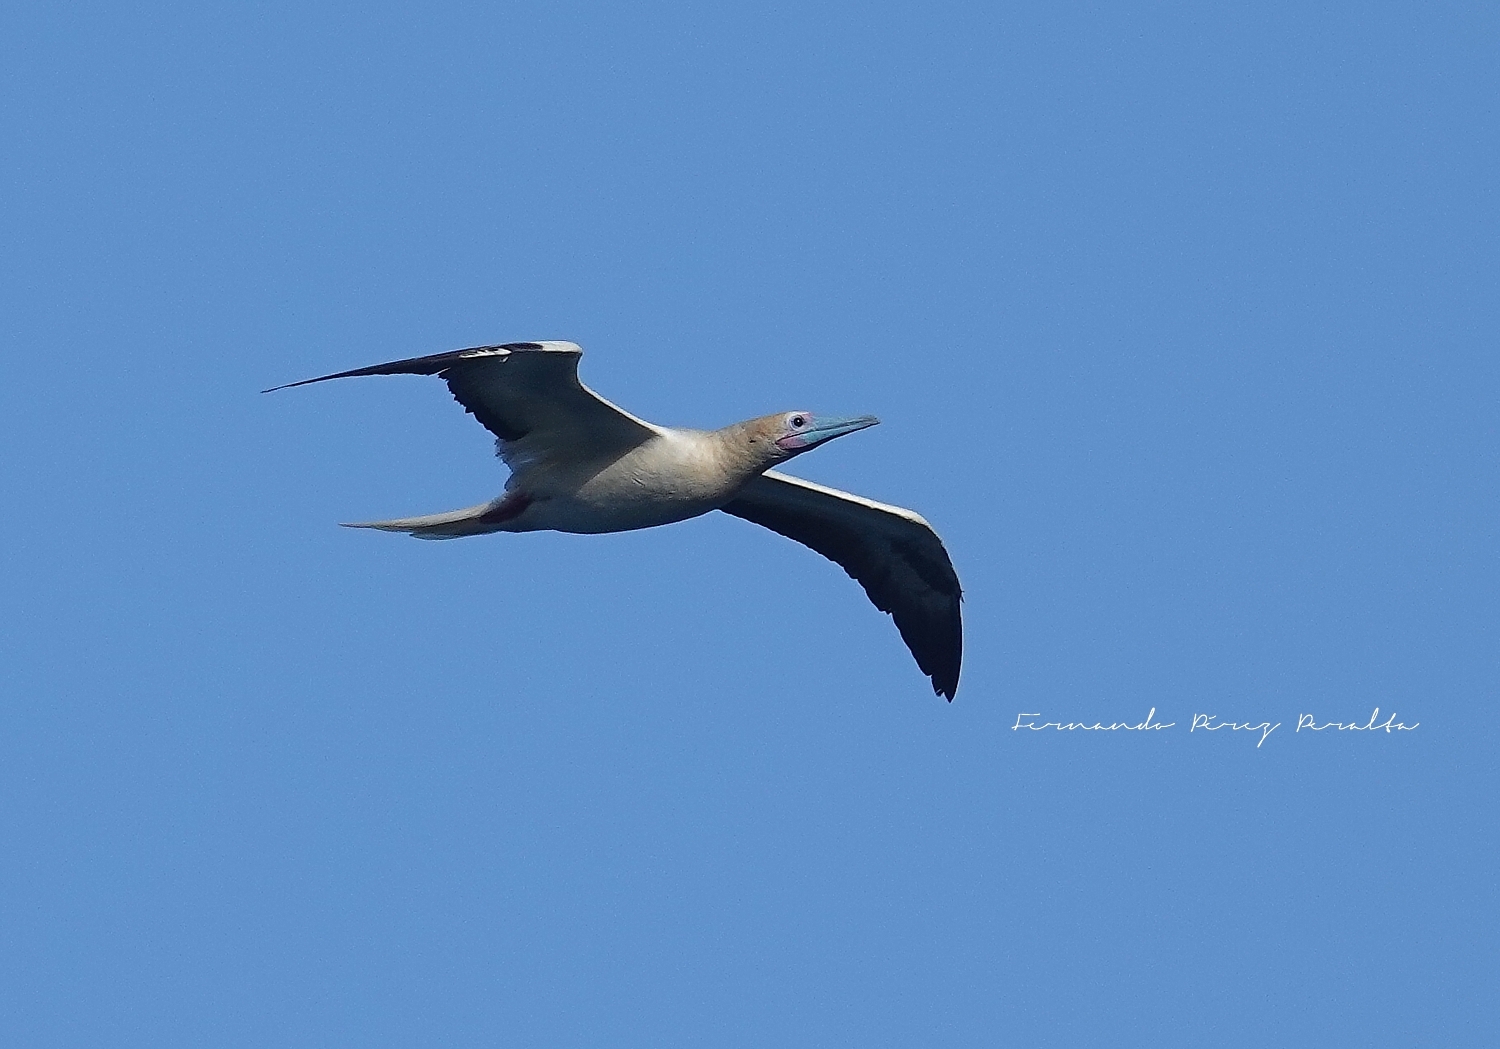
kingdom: Animalia
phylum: Chordata
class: Aves
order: Suliformes
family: Sulidae
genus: Sula
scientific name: Sula sula
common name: Red-footed booby
